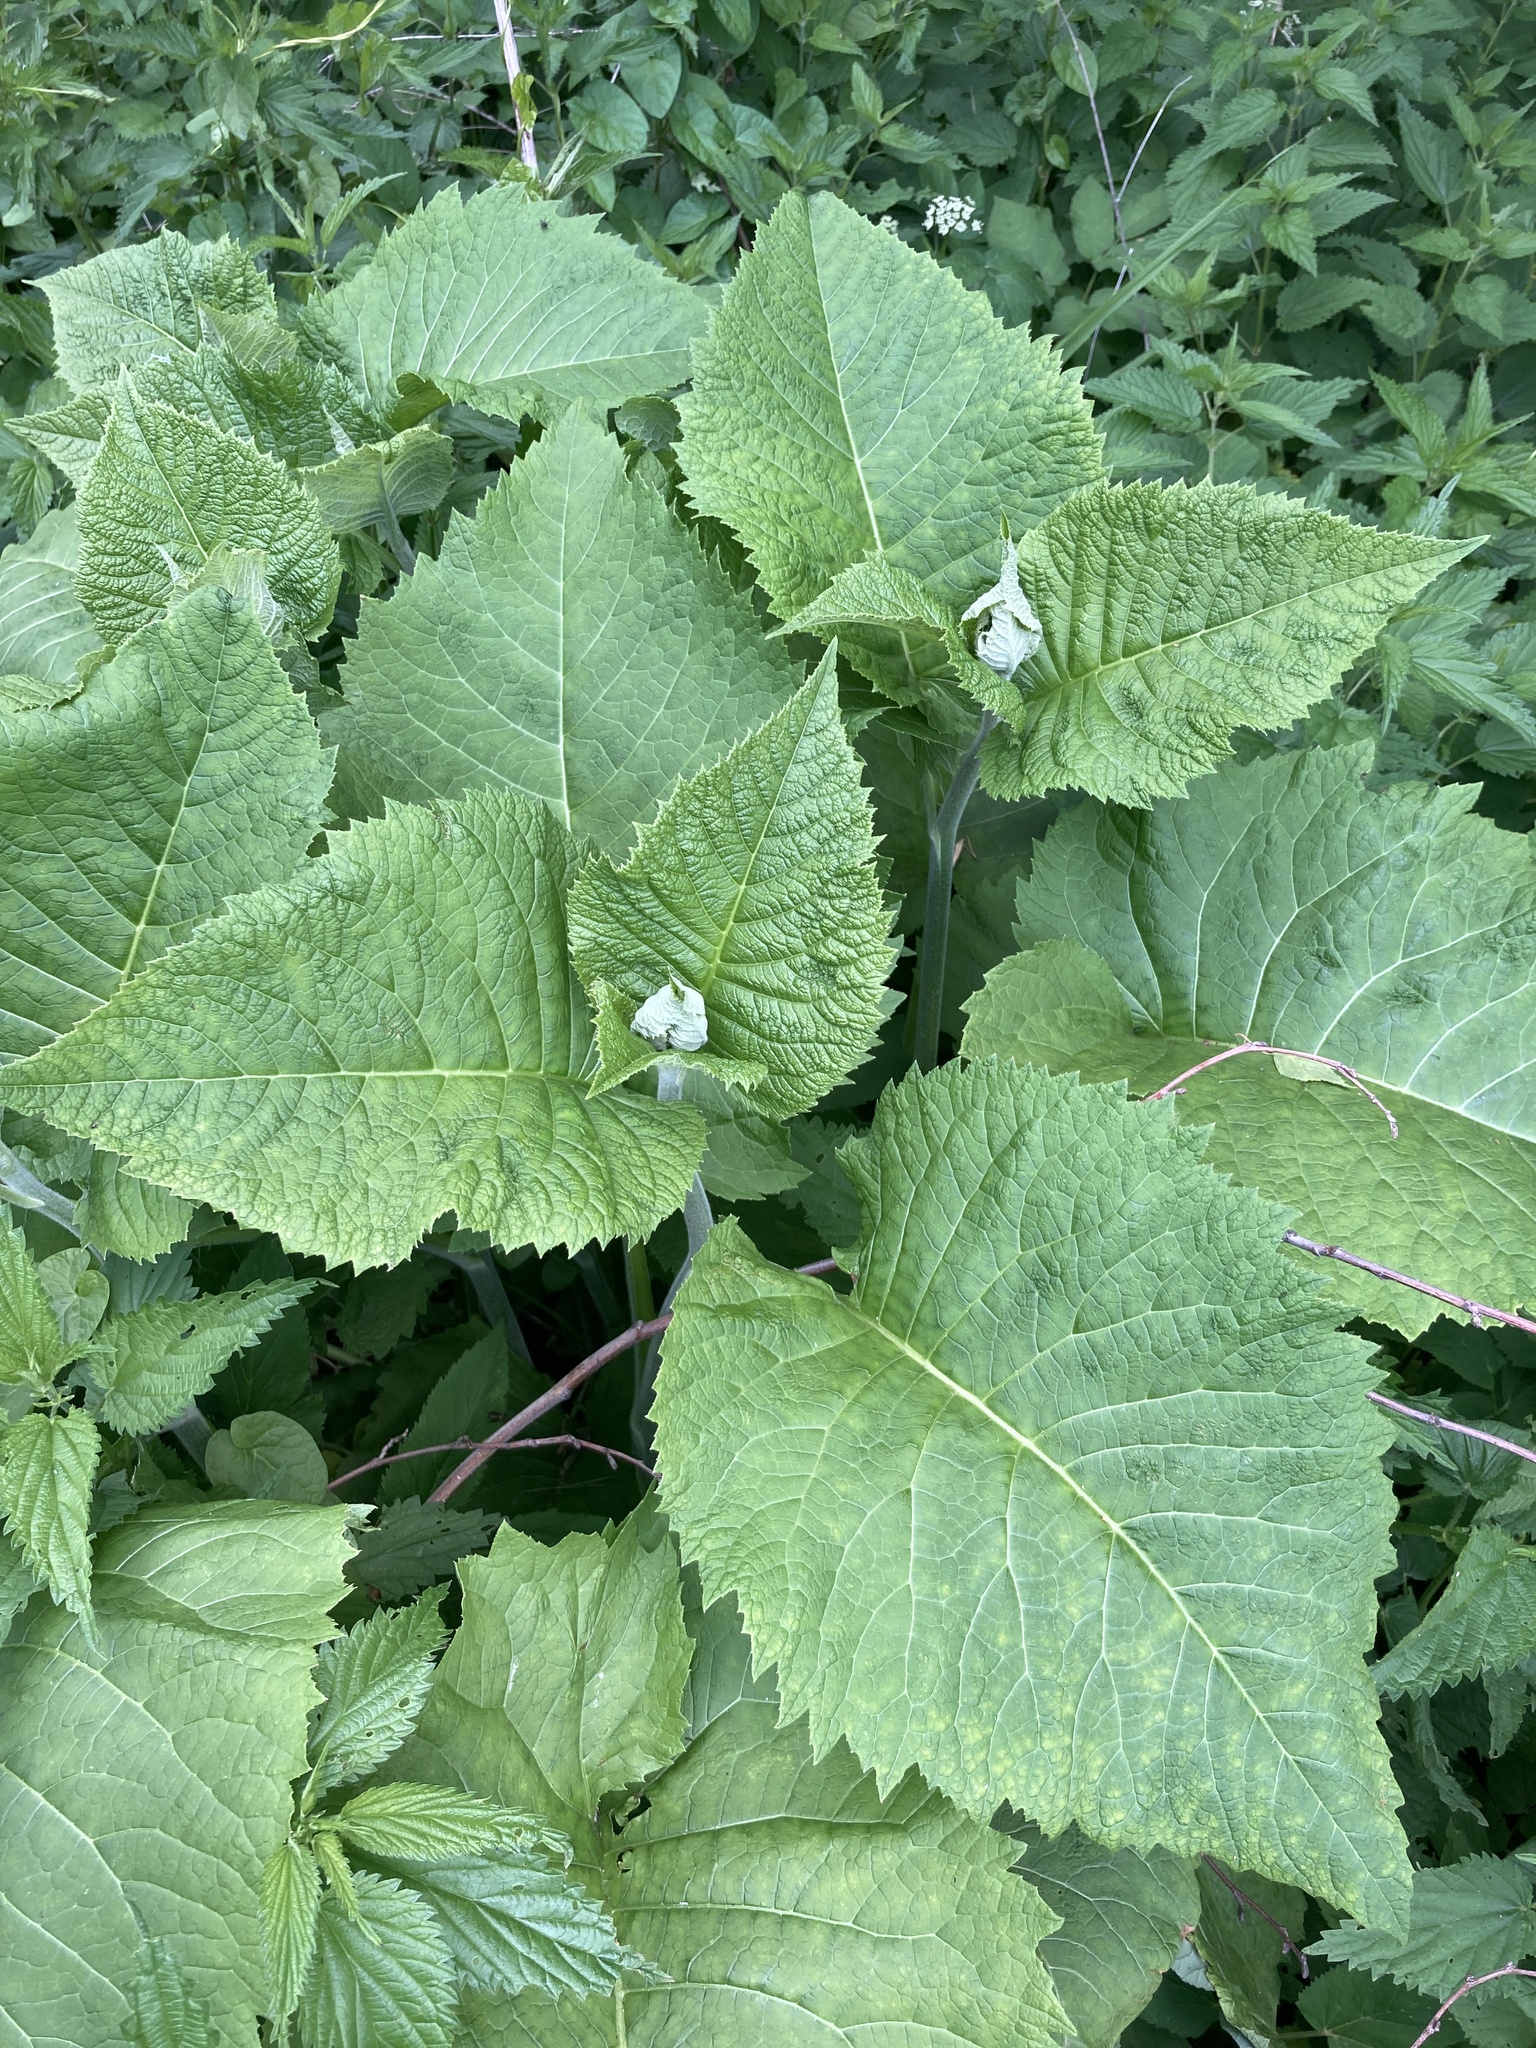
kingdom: Plantae
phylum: Tracheophyta
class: Magnoliopsida
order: Asterales
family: Asteraceae
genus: Telekia
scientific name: Telekia speciosa
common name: Yellow oxeye
